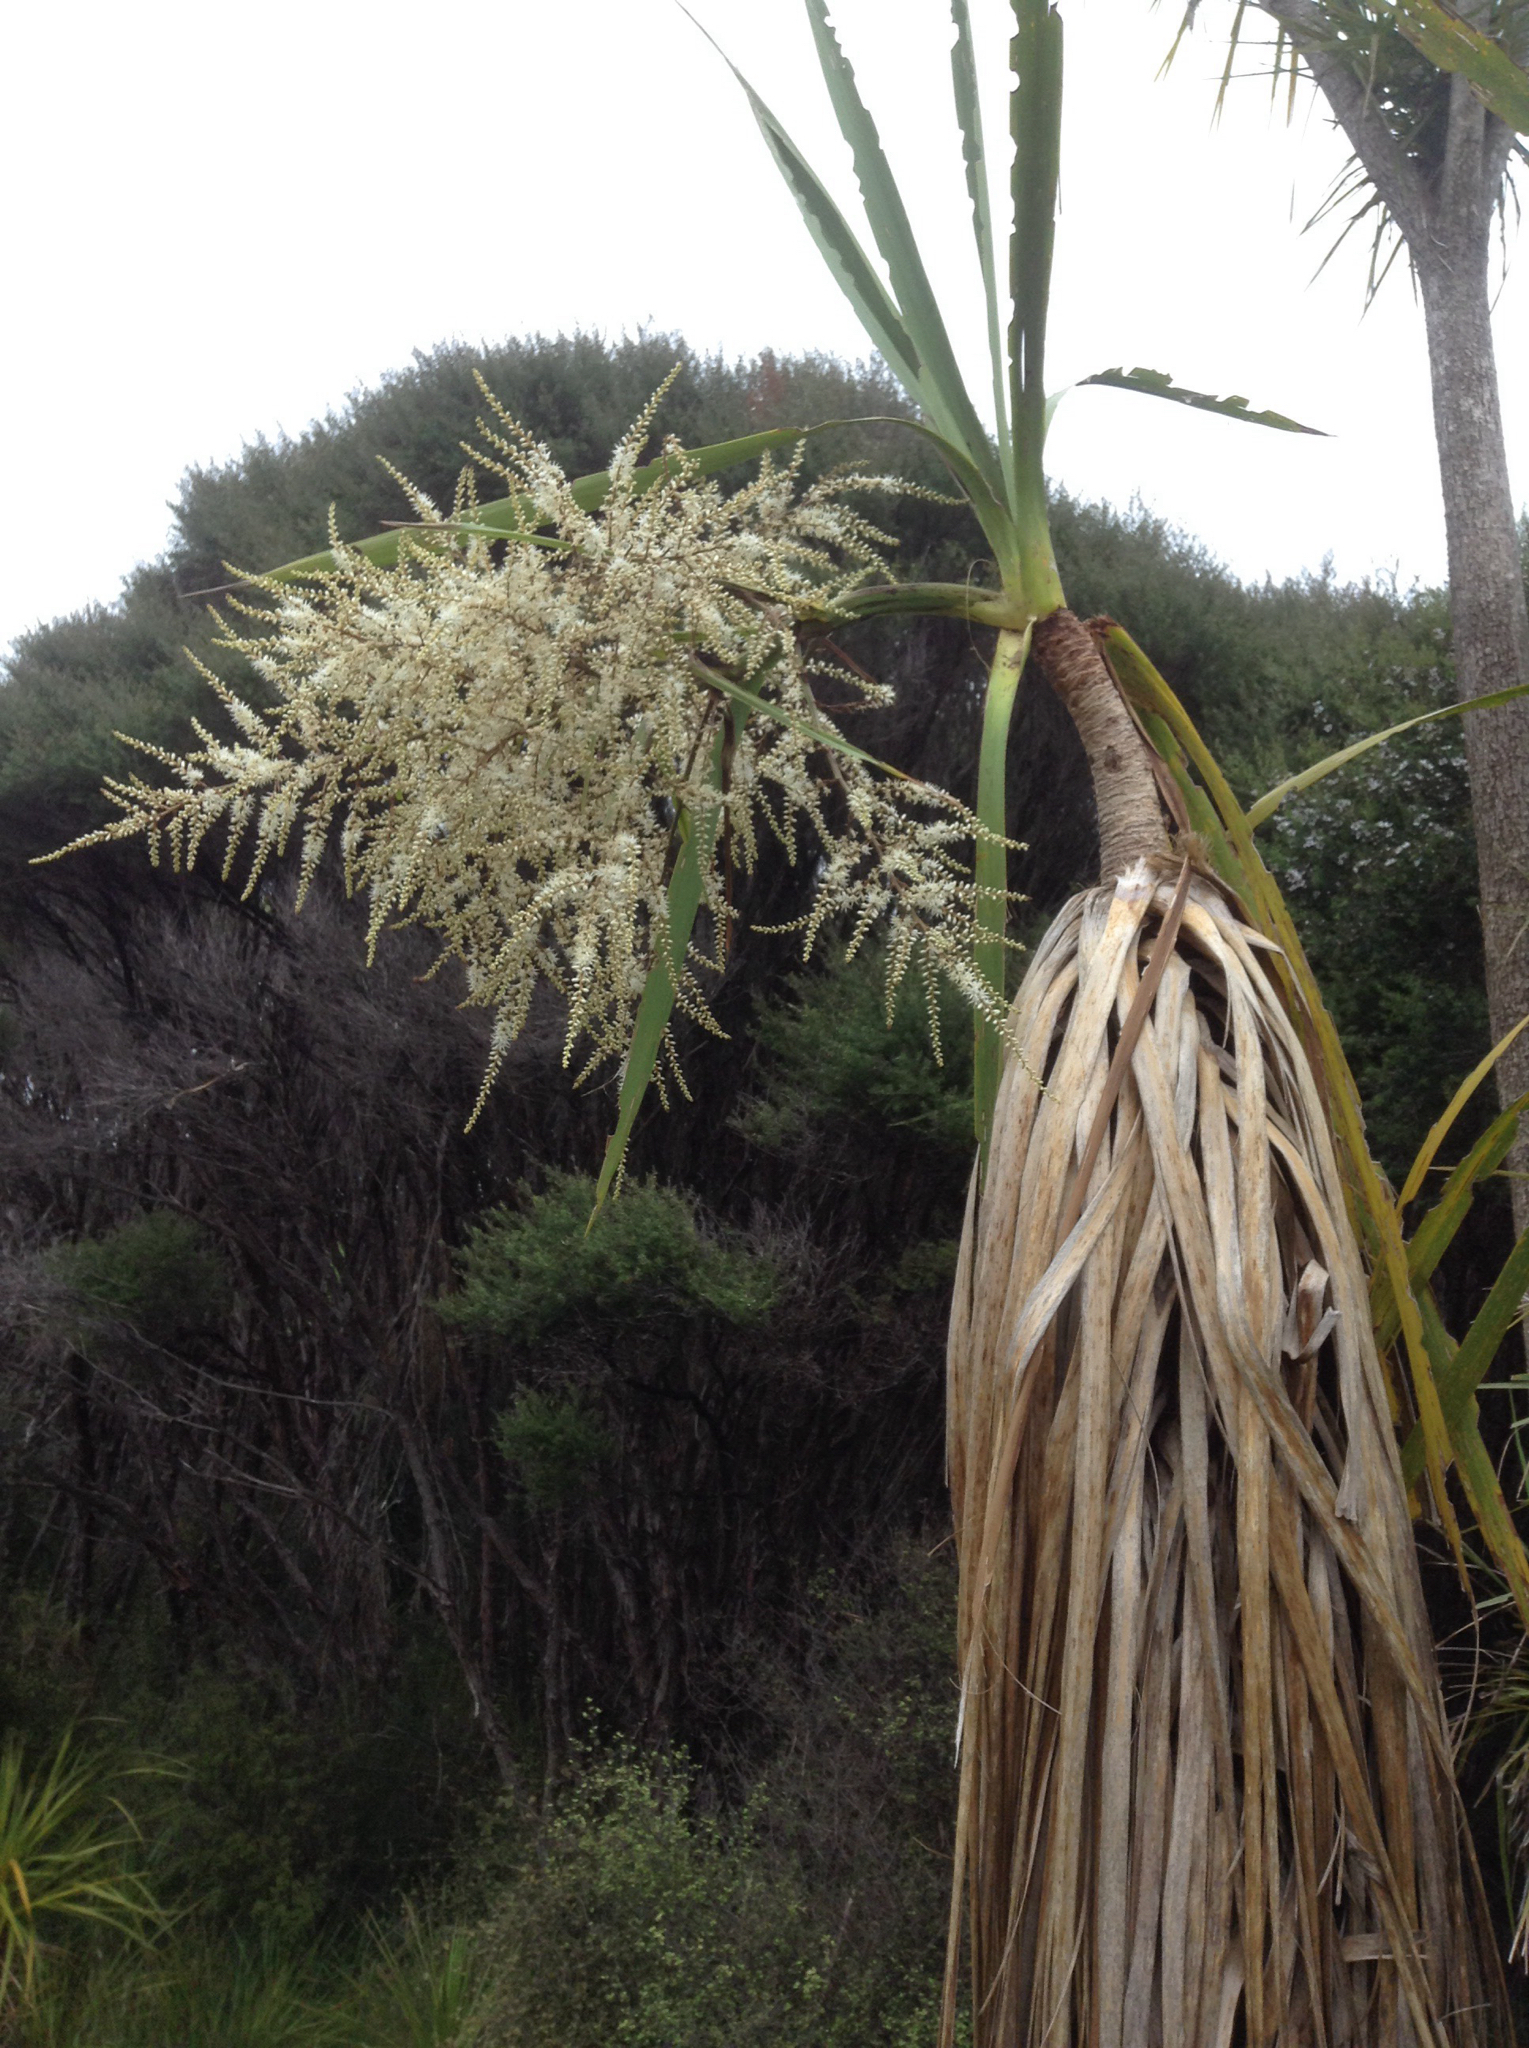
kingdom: Plantae
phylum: Tracheophyta
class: Liliopsida
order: Asparagales
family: Asparagaceae
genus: Cordyline
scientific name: Cordyline australis
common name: Cabbage-palm
